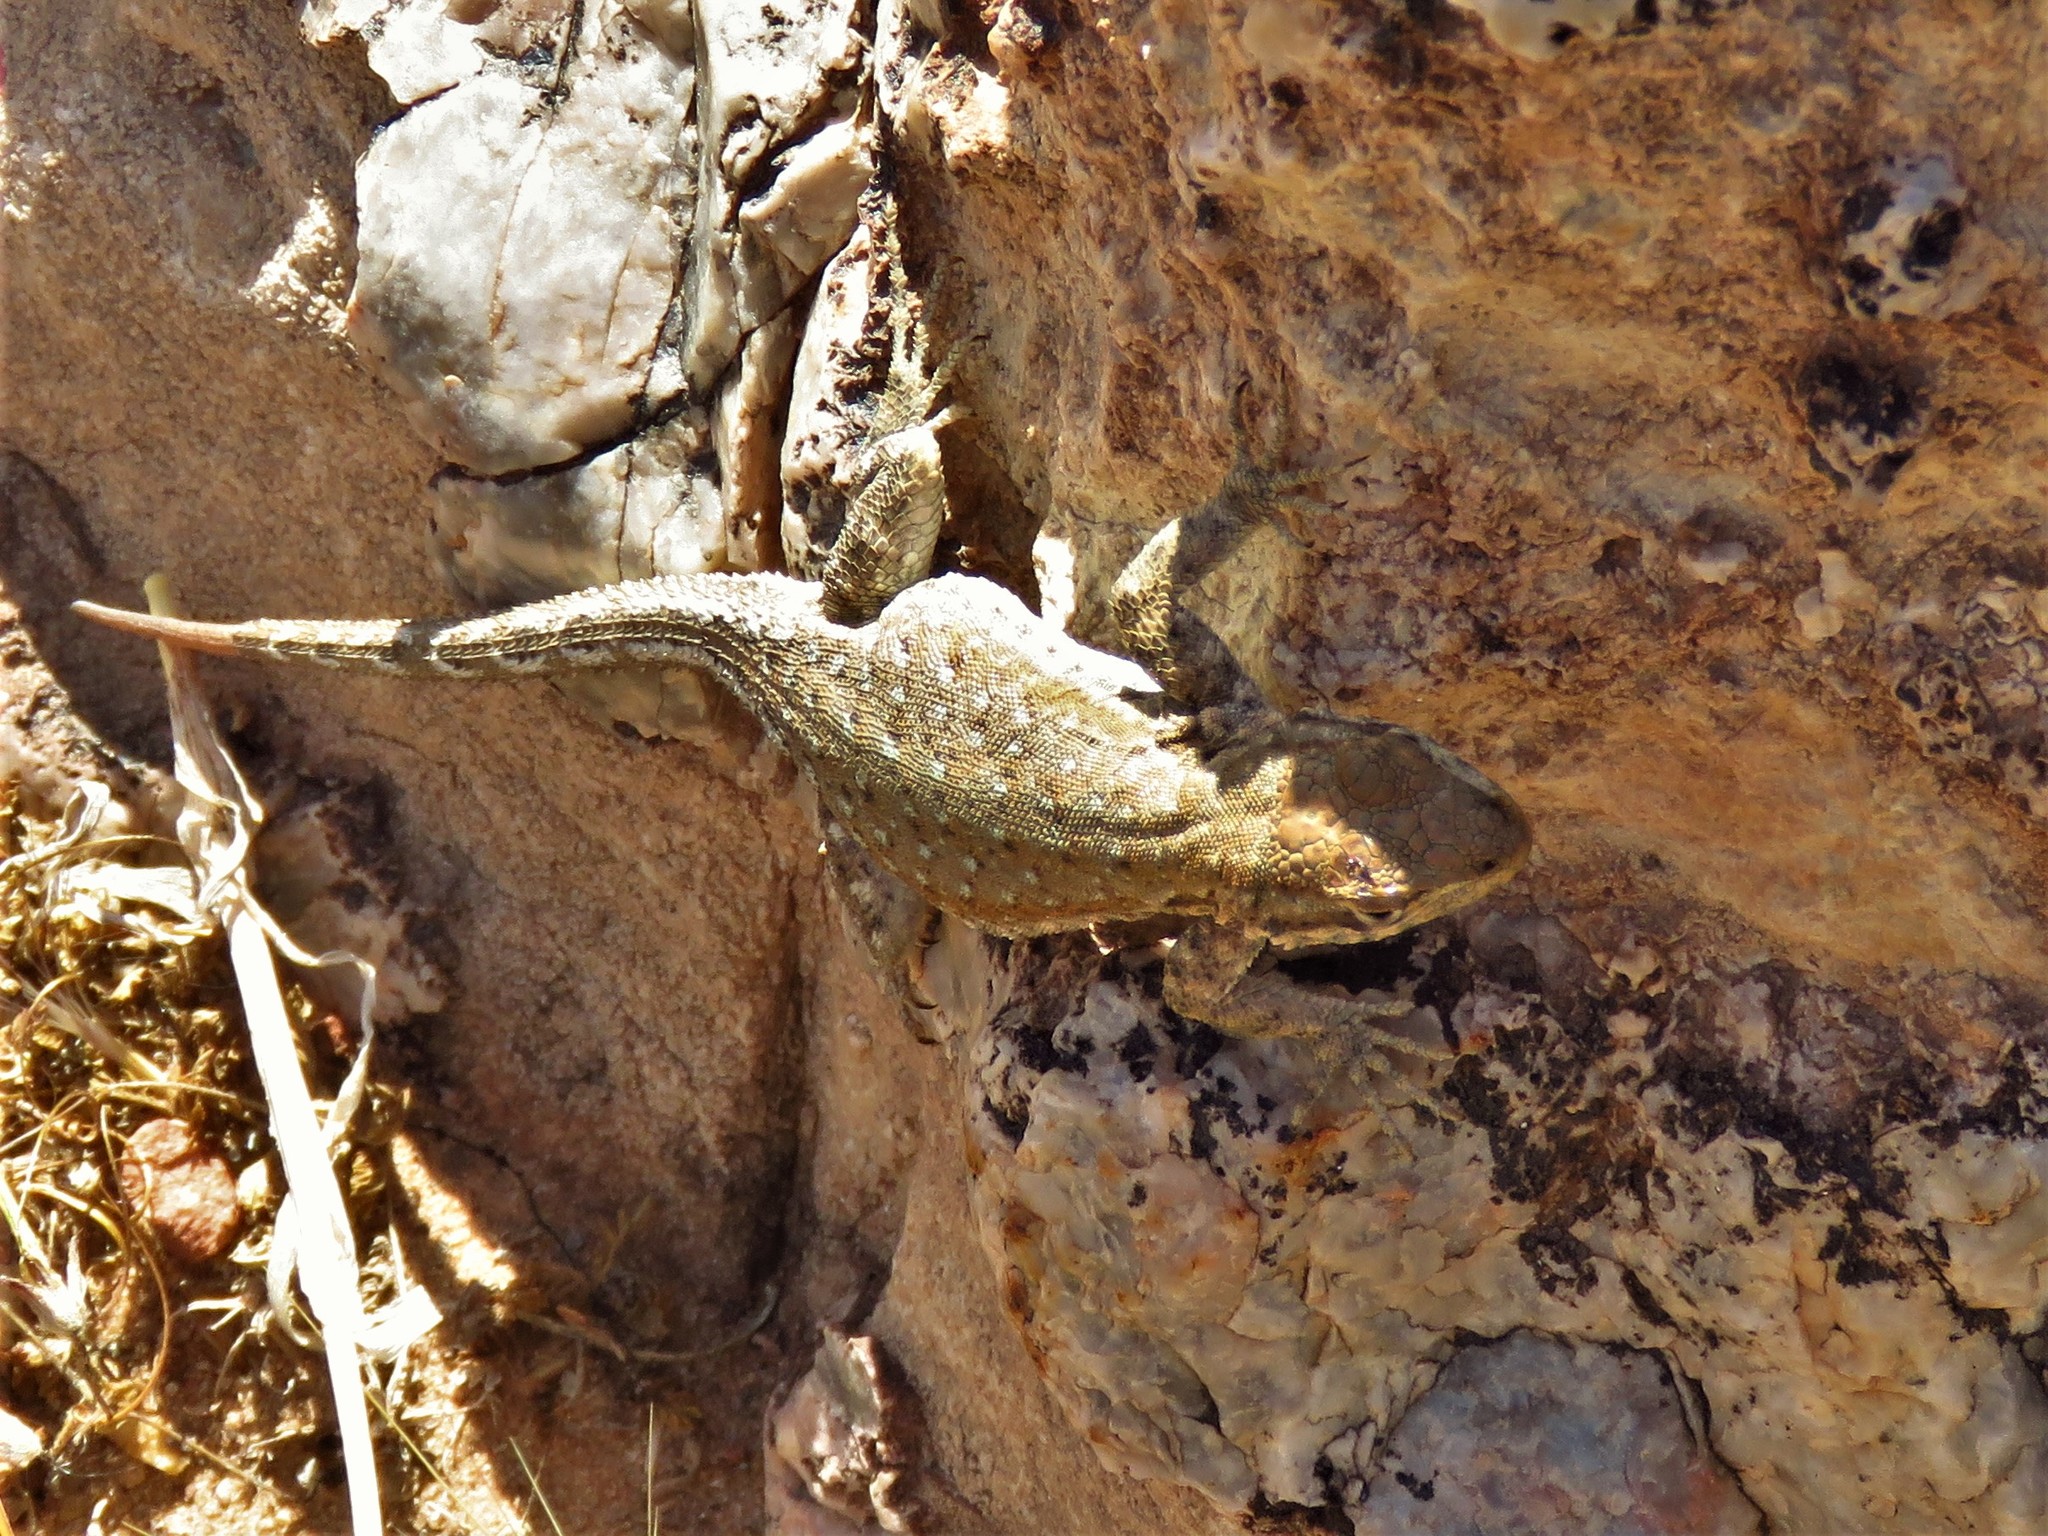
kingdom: Animalia
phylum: Chordata
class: Squamata
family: Phrynosomatidae
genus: Uta
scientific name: Uta stansburiana
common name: Side-blotched lizard
